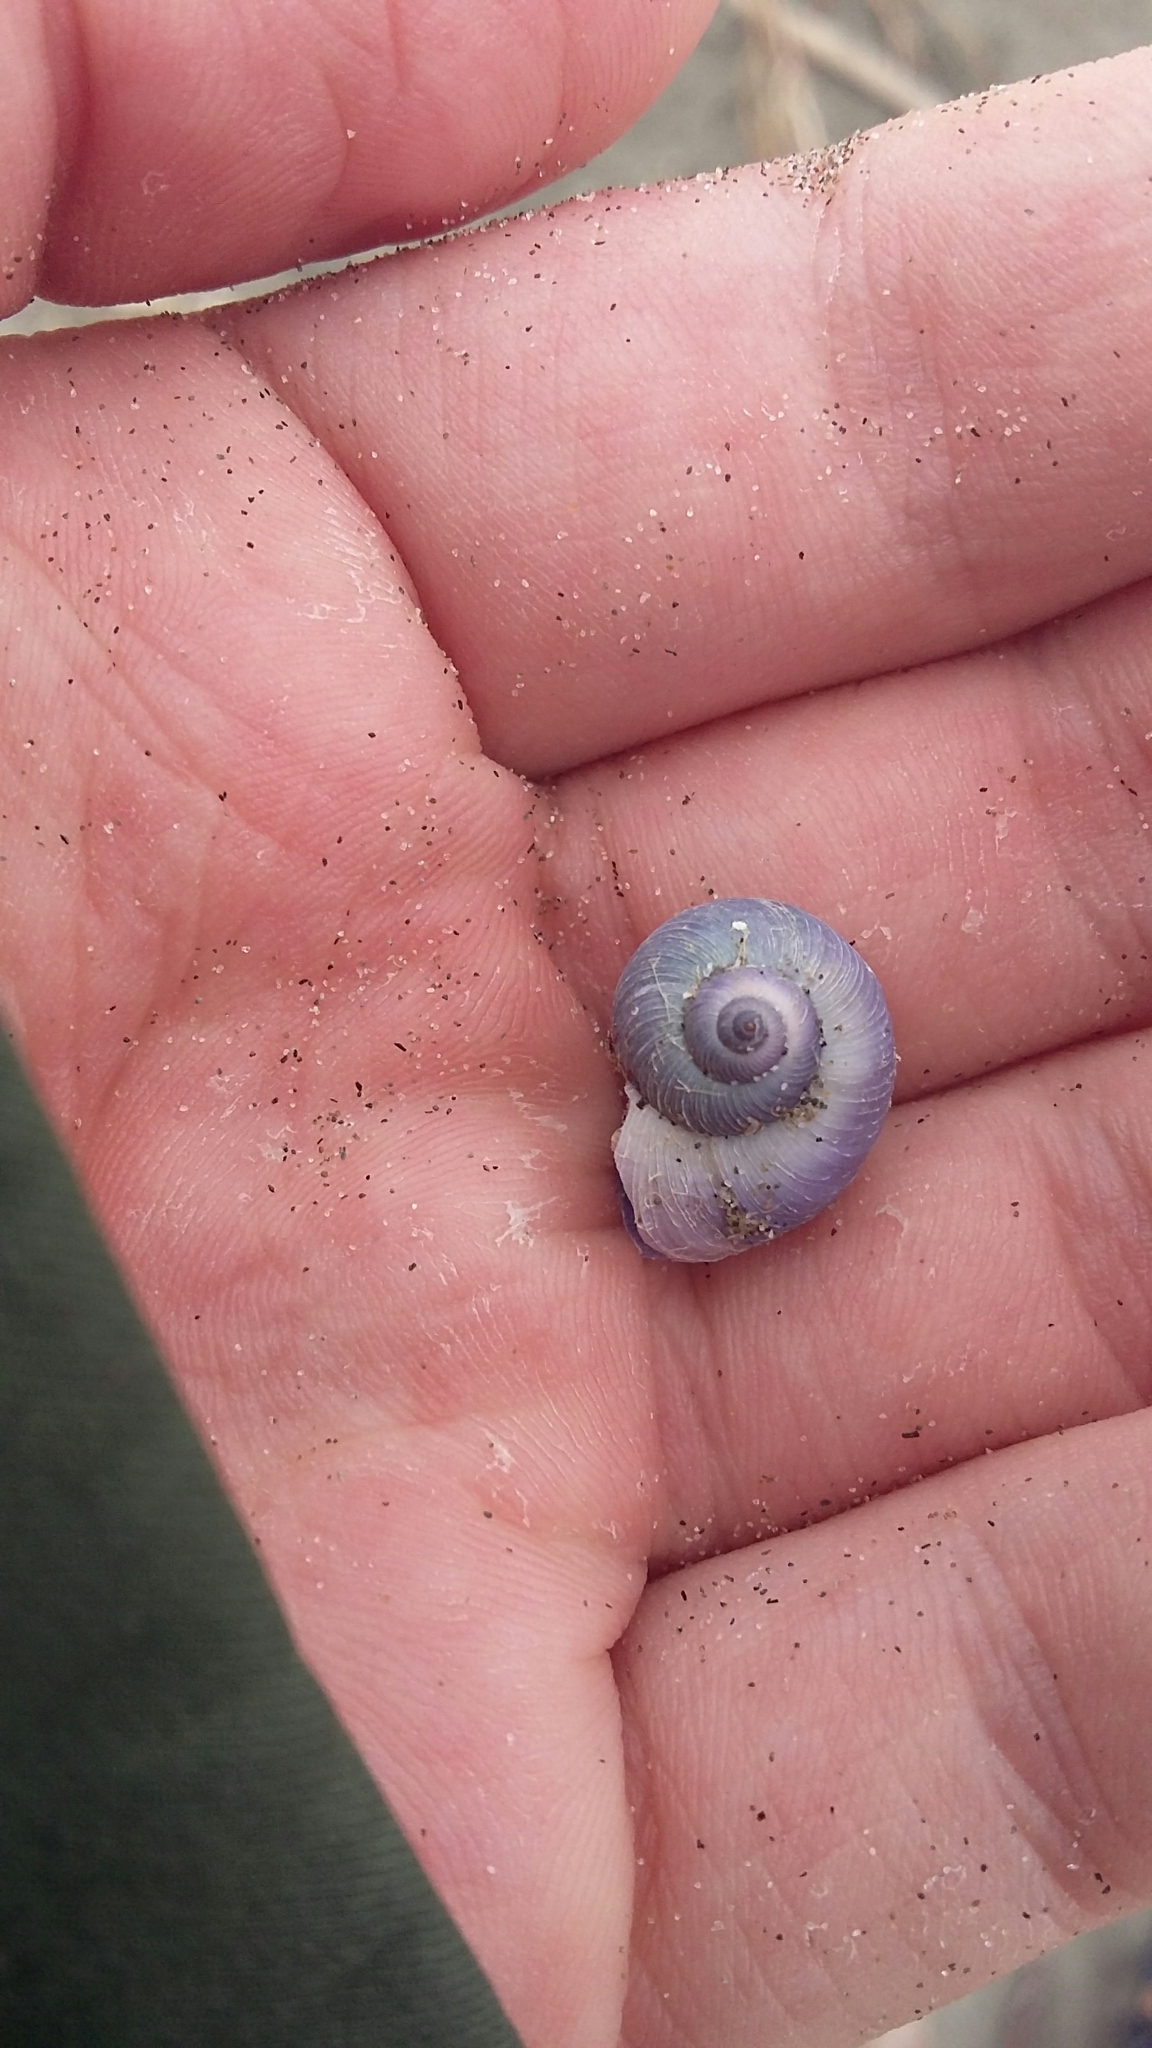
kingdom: Animalia
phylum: Mollusca
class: Gastropoda
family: Epitoniidae
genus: Janthina
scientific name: Janthina exigua
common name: Dwarf janthina
